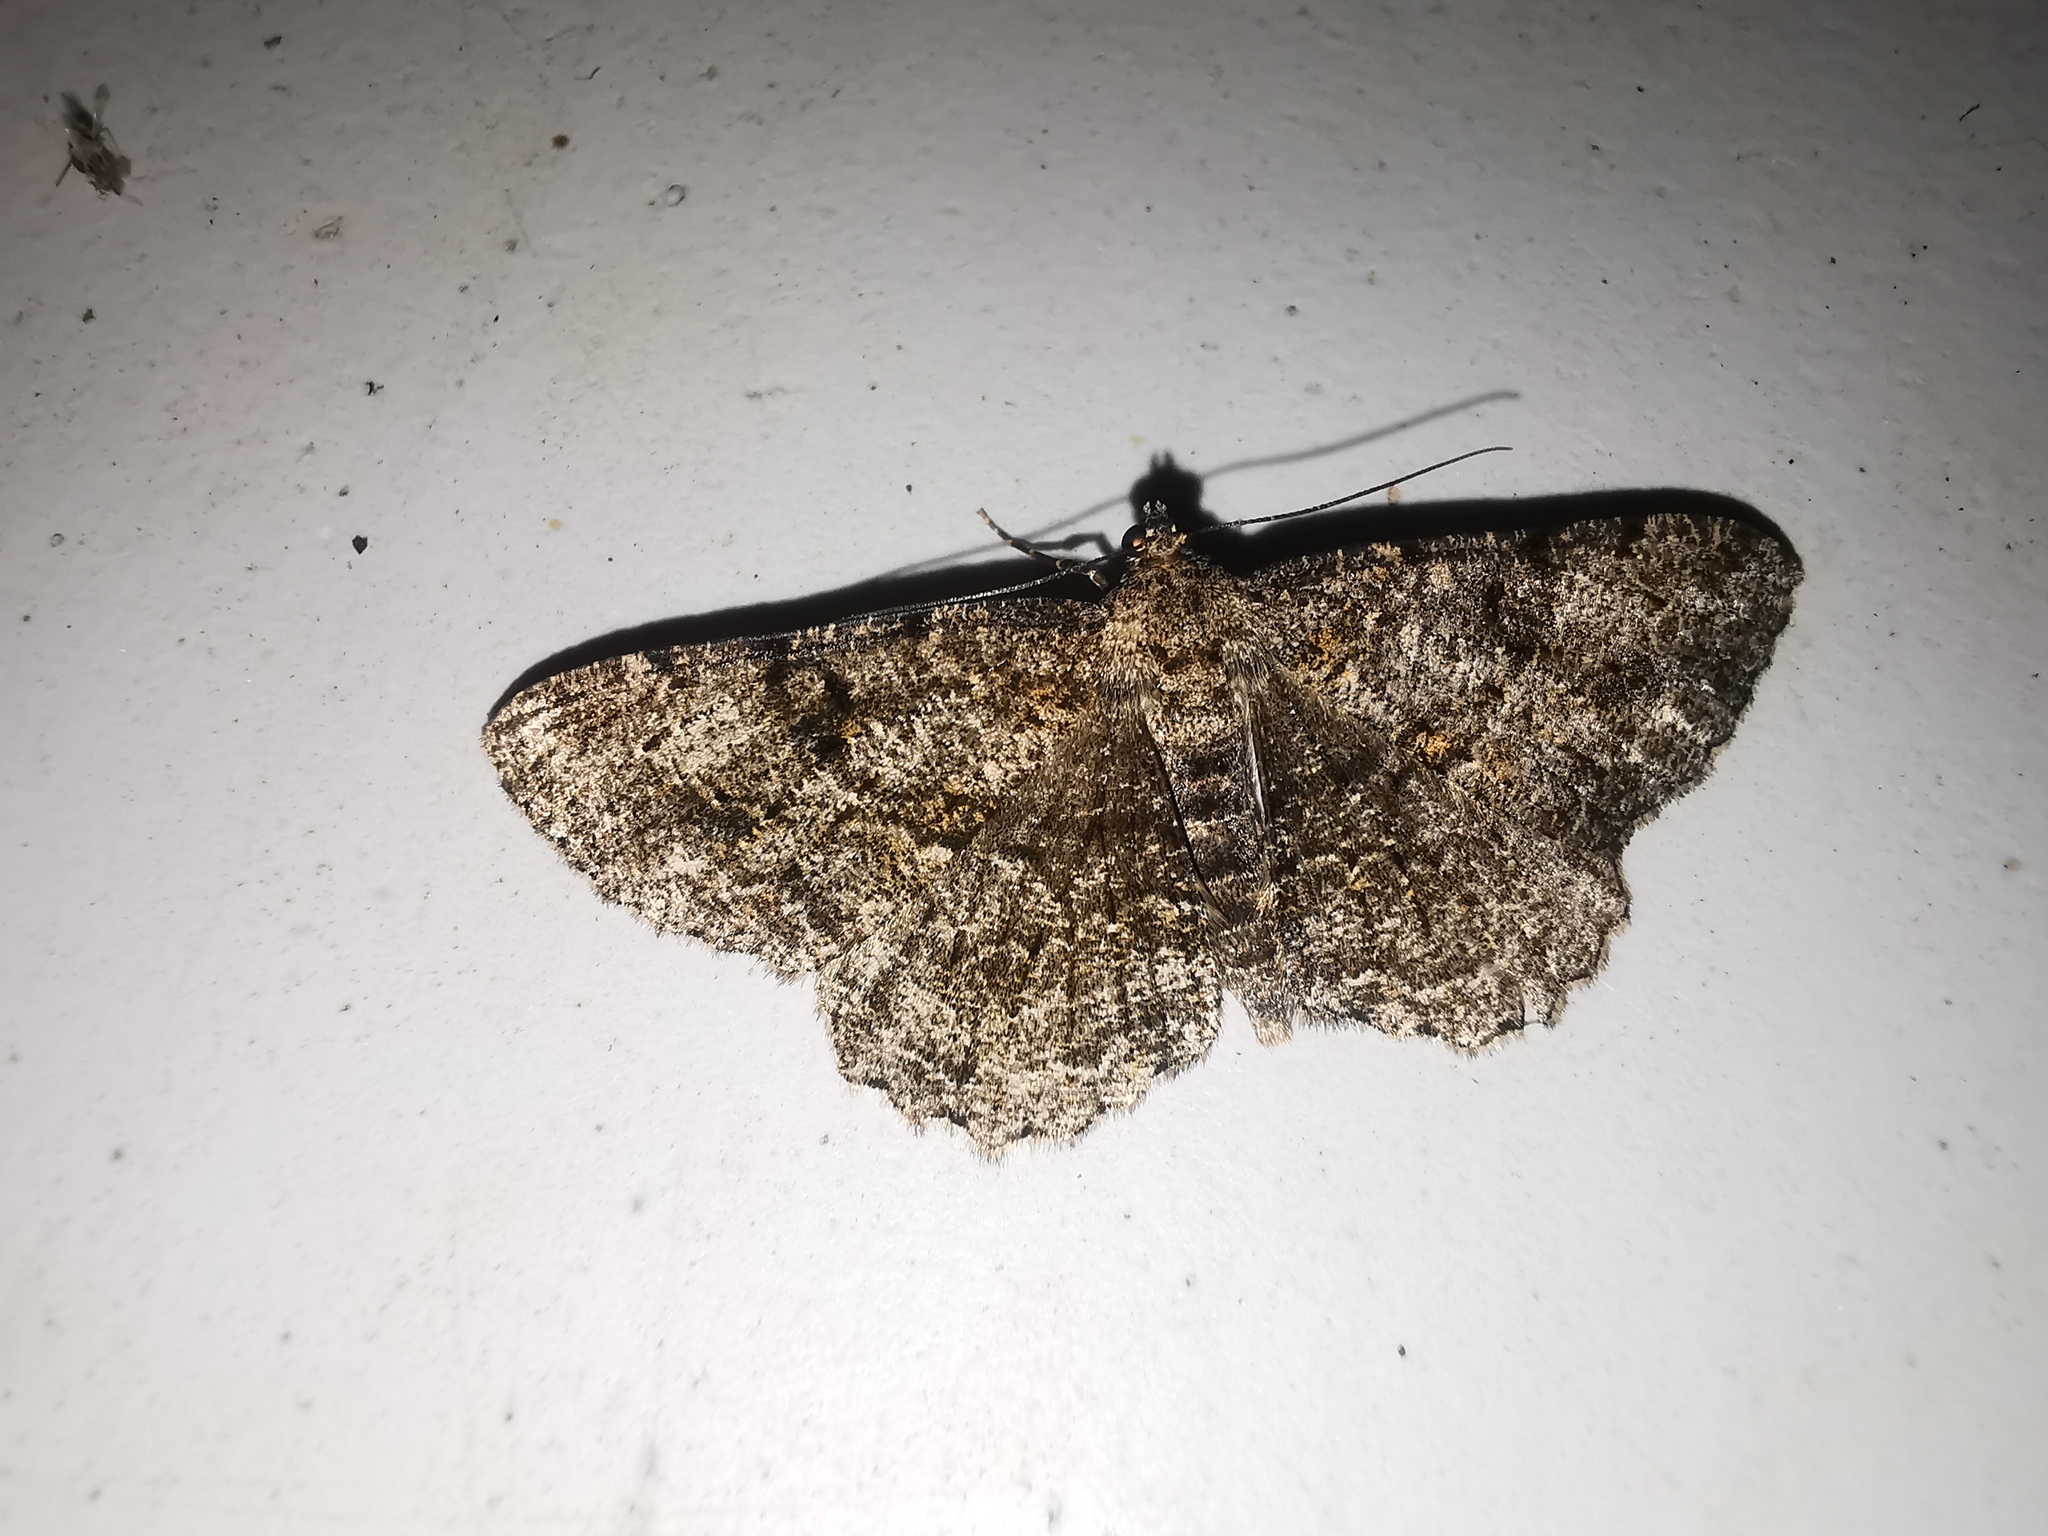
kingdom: Animalia
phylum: Arthropoda
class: Insecta
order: Lepidoptera
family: Geometridae
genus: Peribatodes
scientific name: Peribatodes rhomboidaria
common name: Willow beauty
